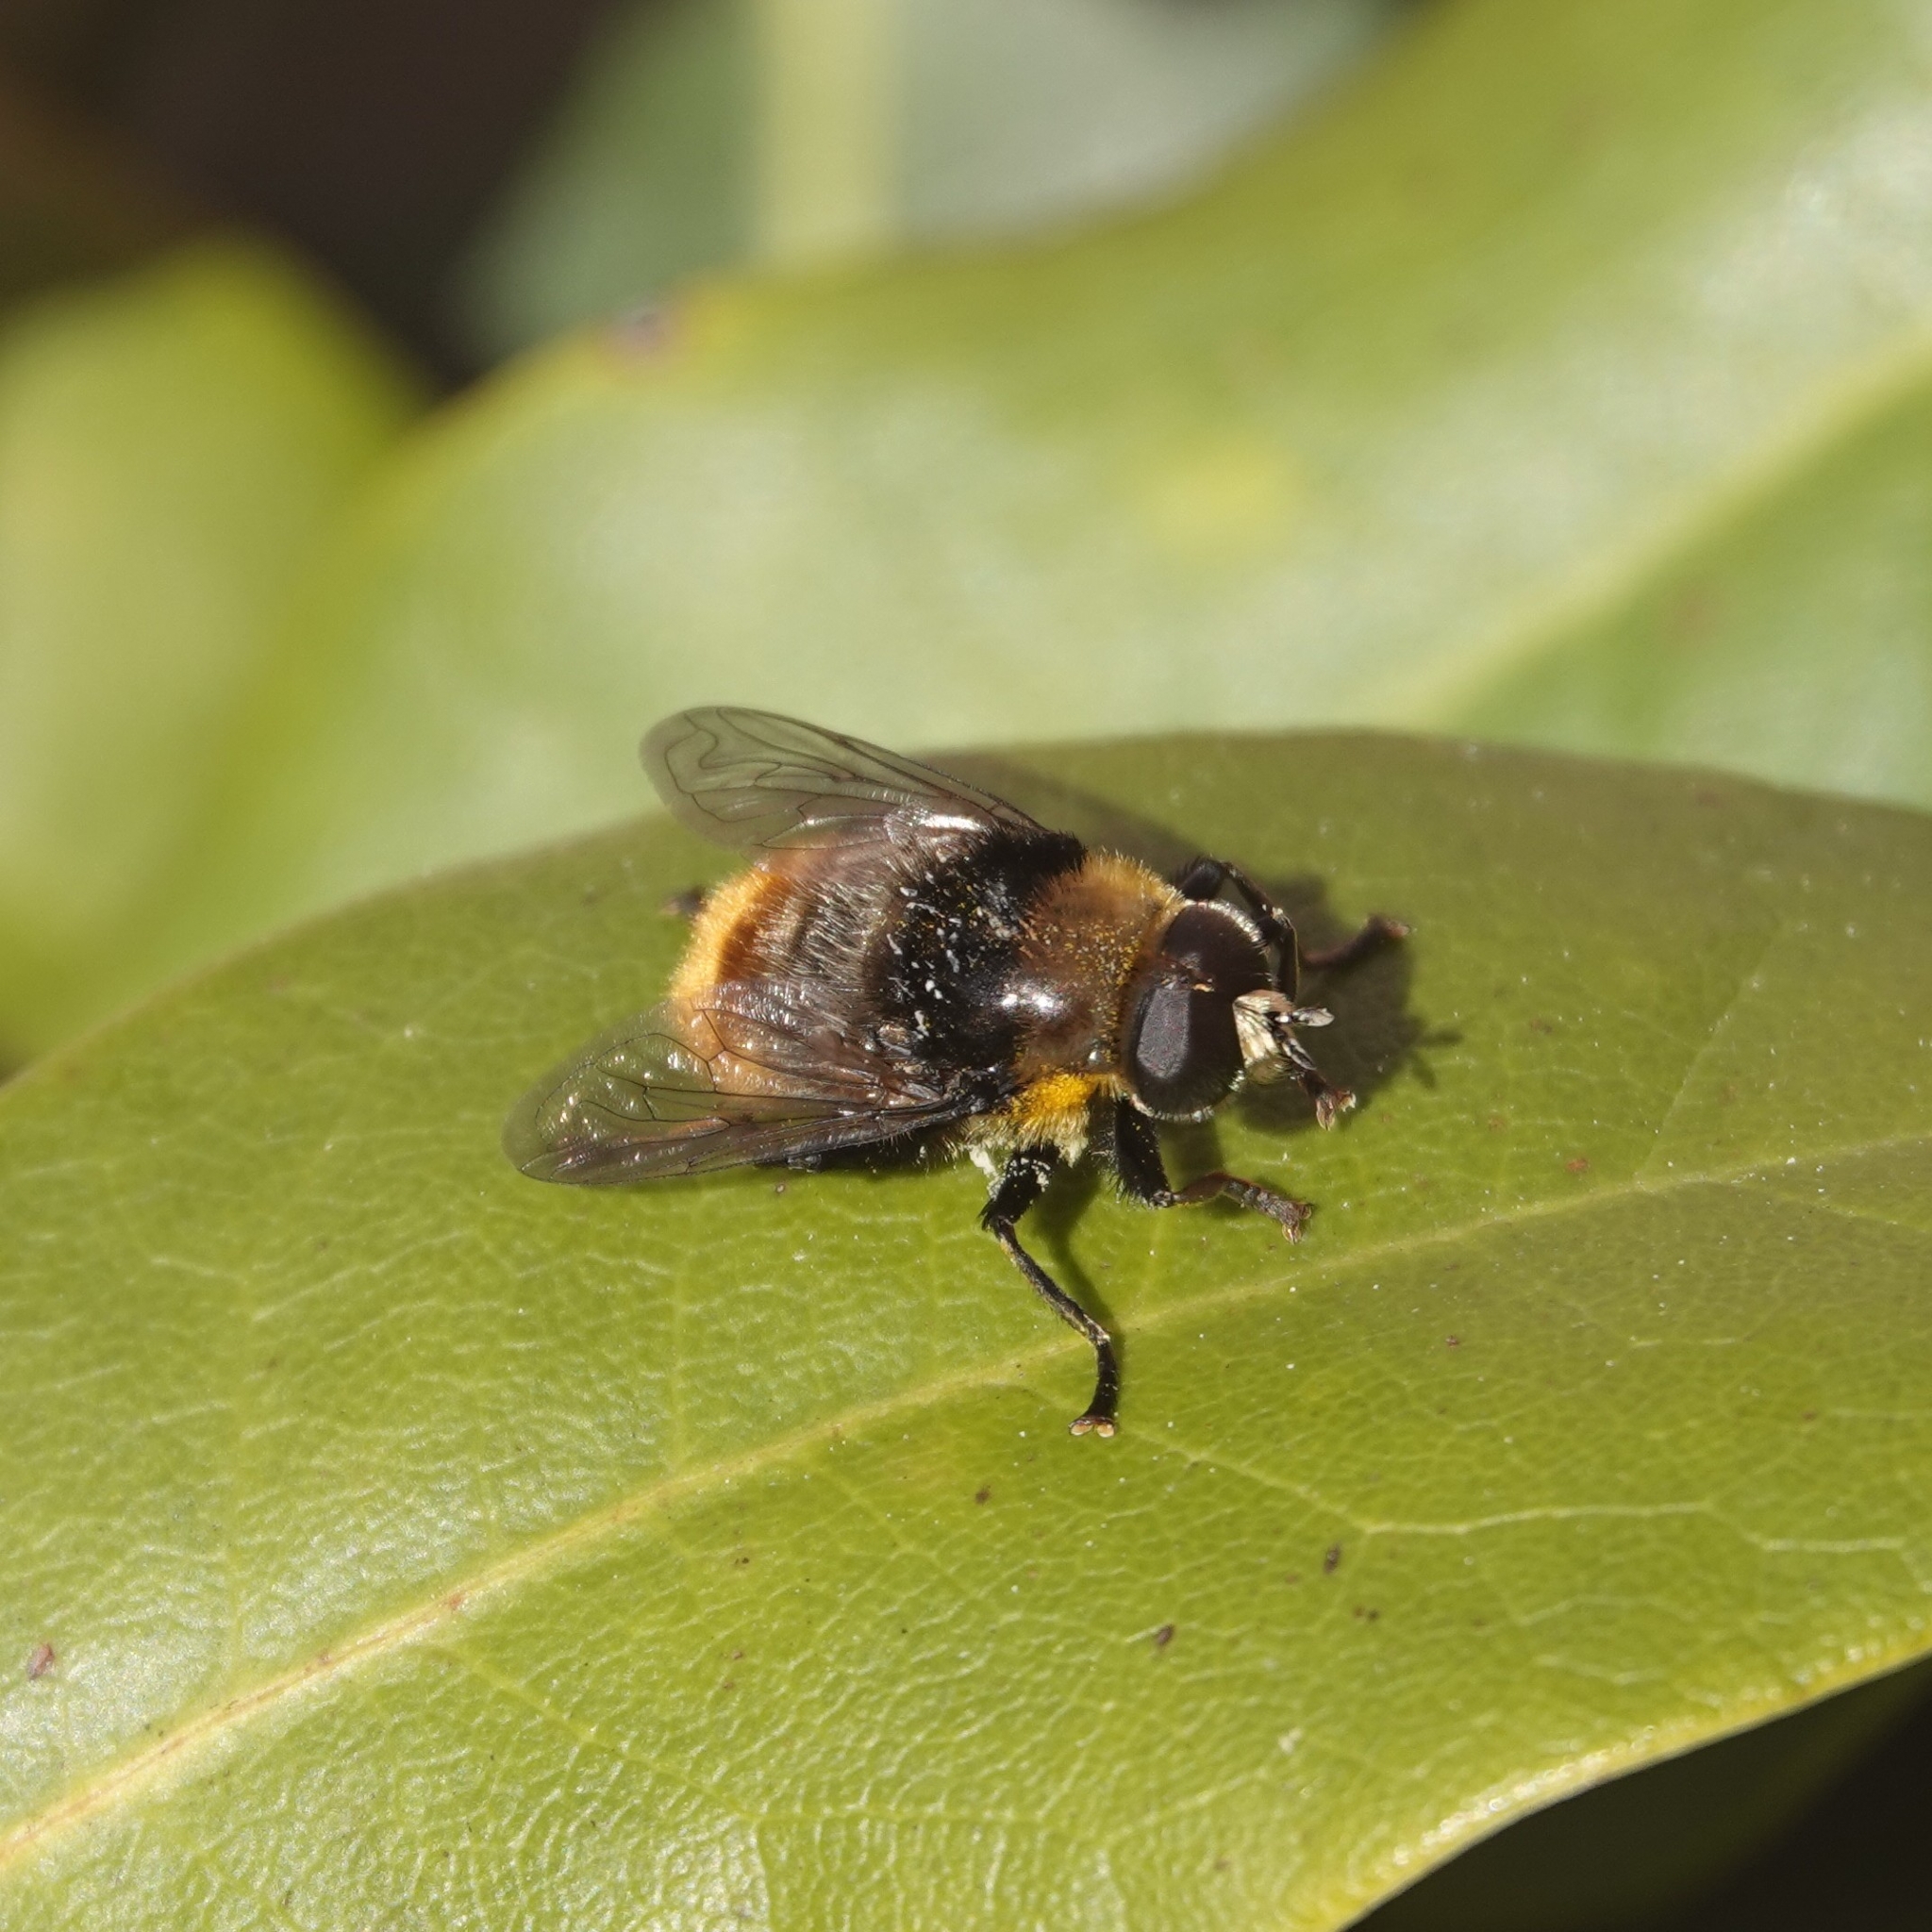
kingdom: Animalia
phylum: Arthropoda
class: Insecta
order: Diptera
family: Syrphidae
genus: Merodon
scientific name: Merodon equestris
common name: Greater bulb-fly
